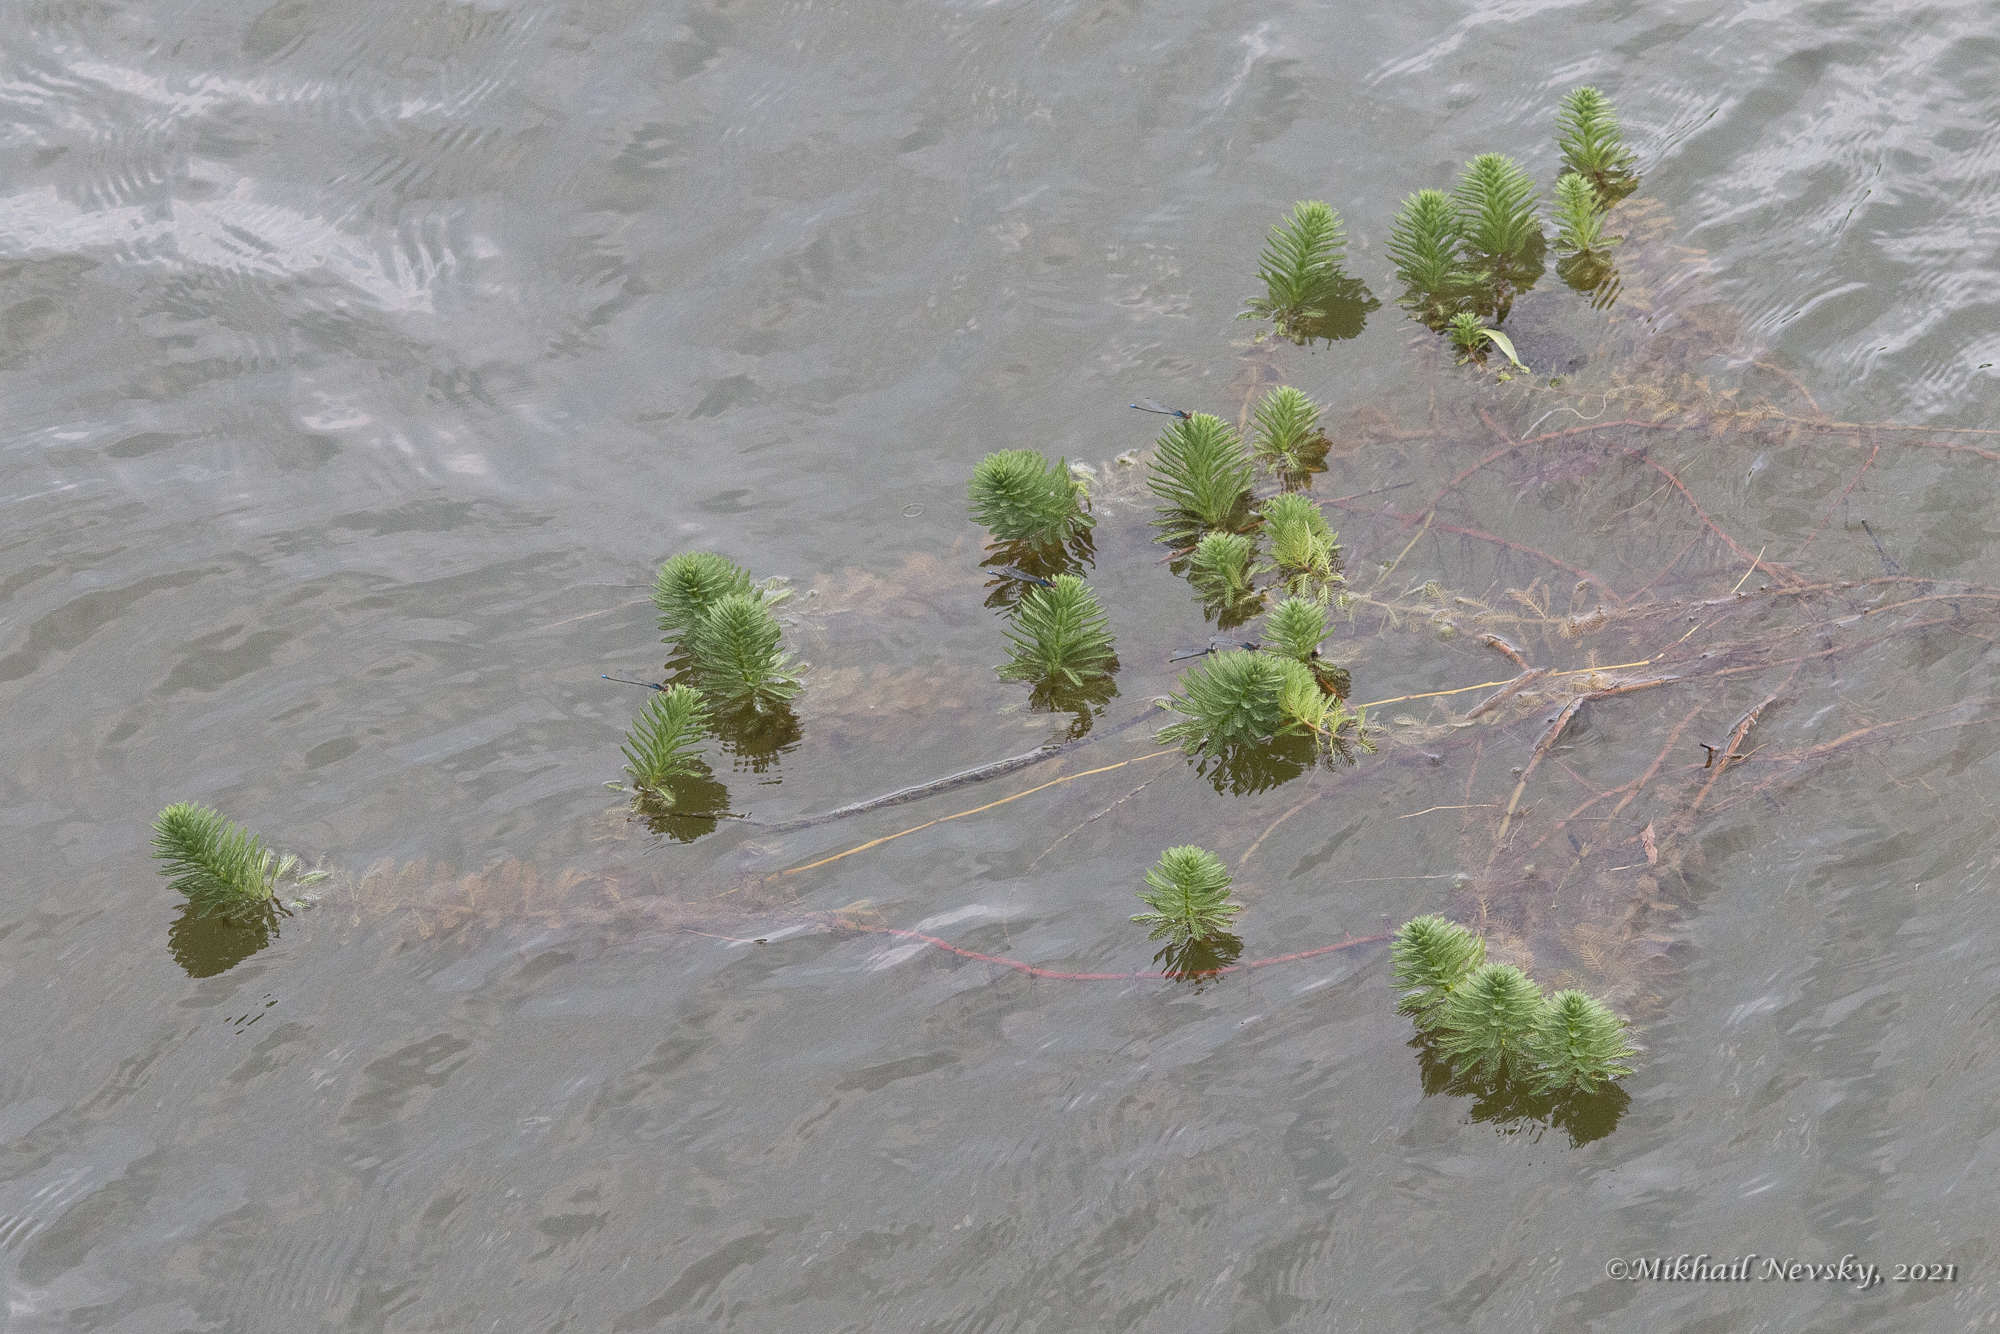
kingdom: Plantae
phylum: Tracheophyta
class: Magnoliopsida
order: Saxifragales
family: Haloragaceae
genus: Myriophyllum
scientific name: Myriophyllum aquaticum
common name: Parrot's feather
